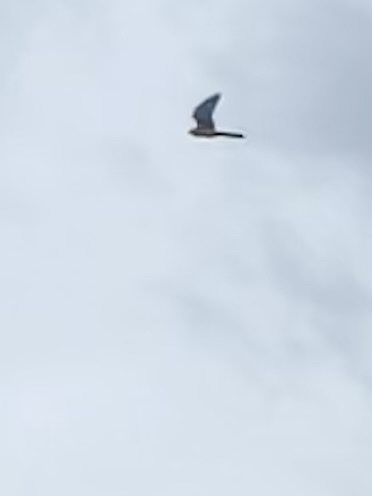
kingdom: Animalia
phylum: Chordata
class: Aves
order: Falconiformes
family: Falconidae
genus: Falco
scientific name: Falco tinnunculus
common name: Common kestrel
